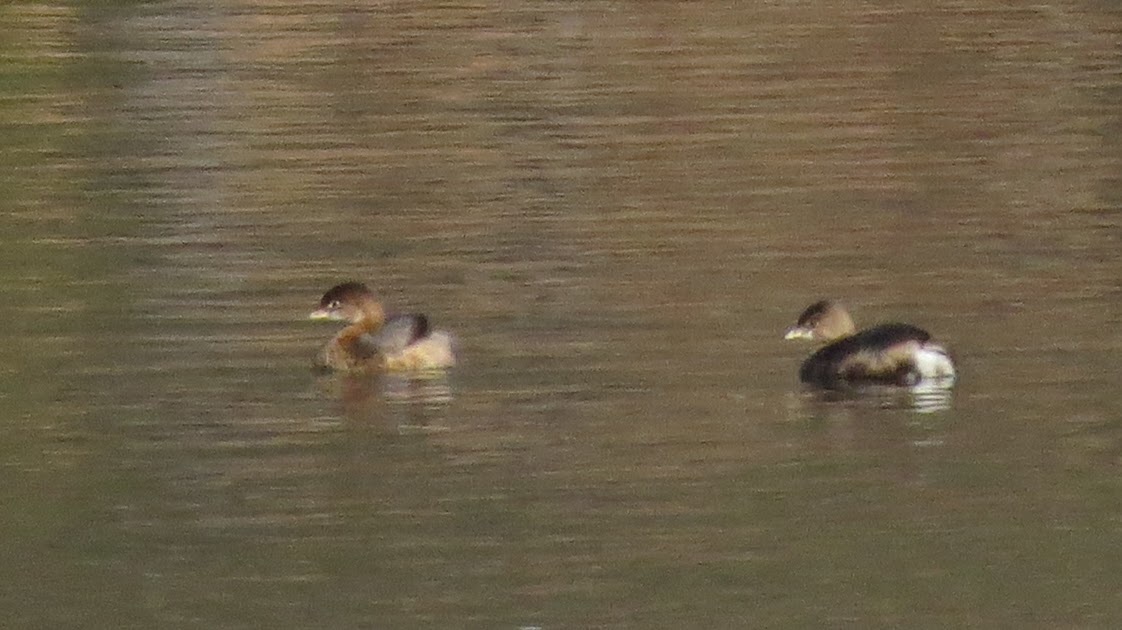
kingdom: Animalia
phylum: Chordata
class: Aves
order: Podicipediformes
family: Podicipedidae
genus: Podilymbus
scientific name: Podilymbus podiceps
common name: Pied-billed grebe
